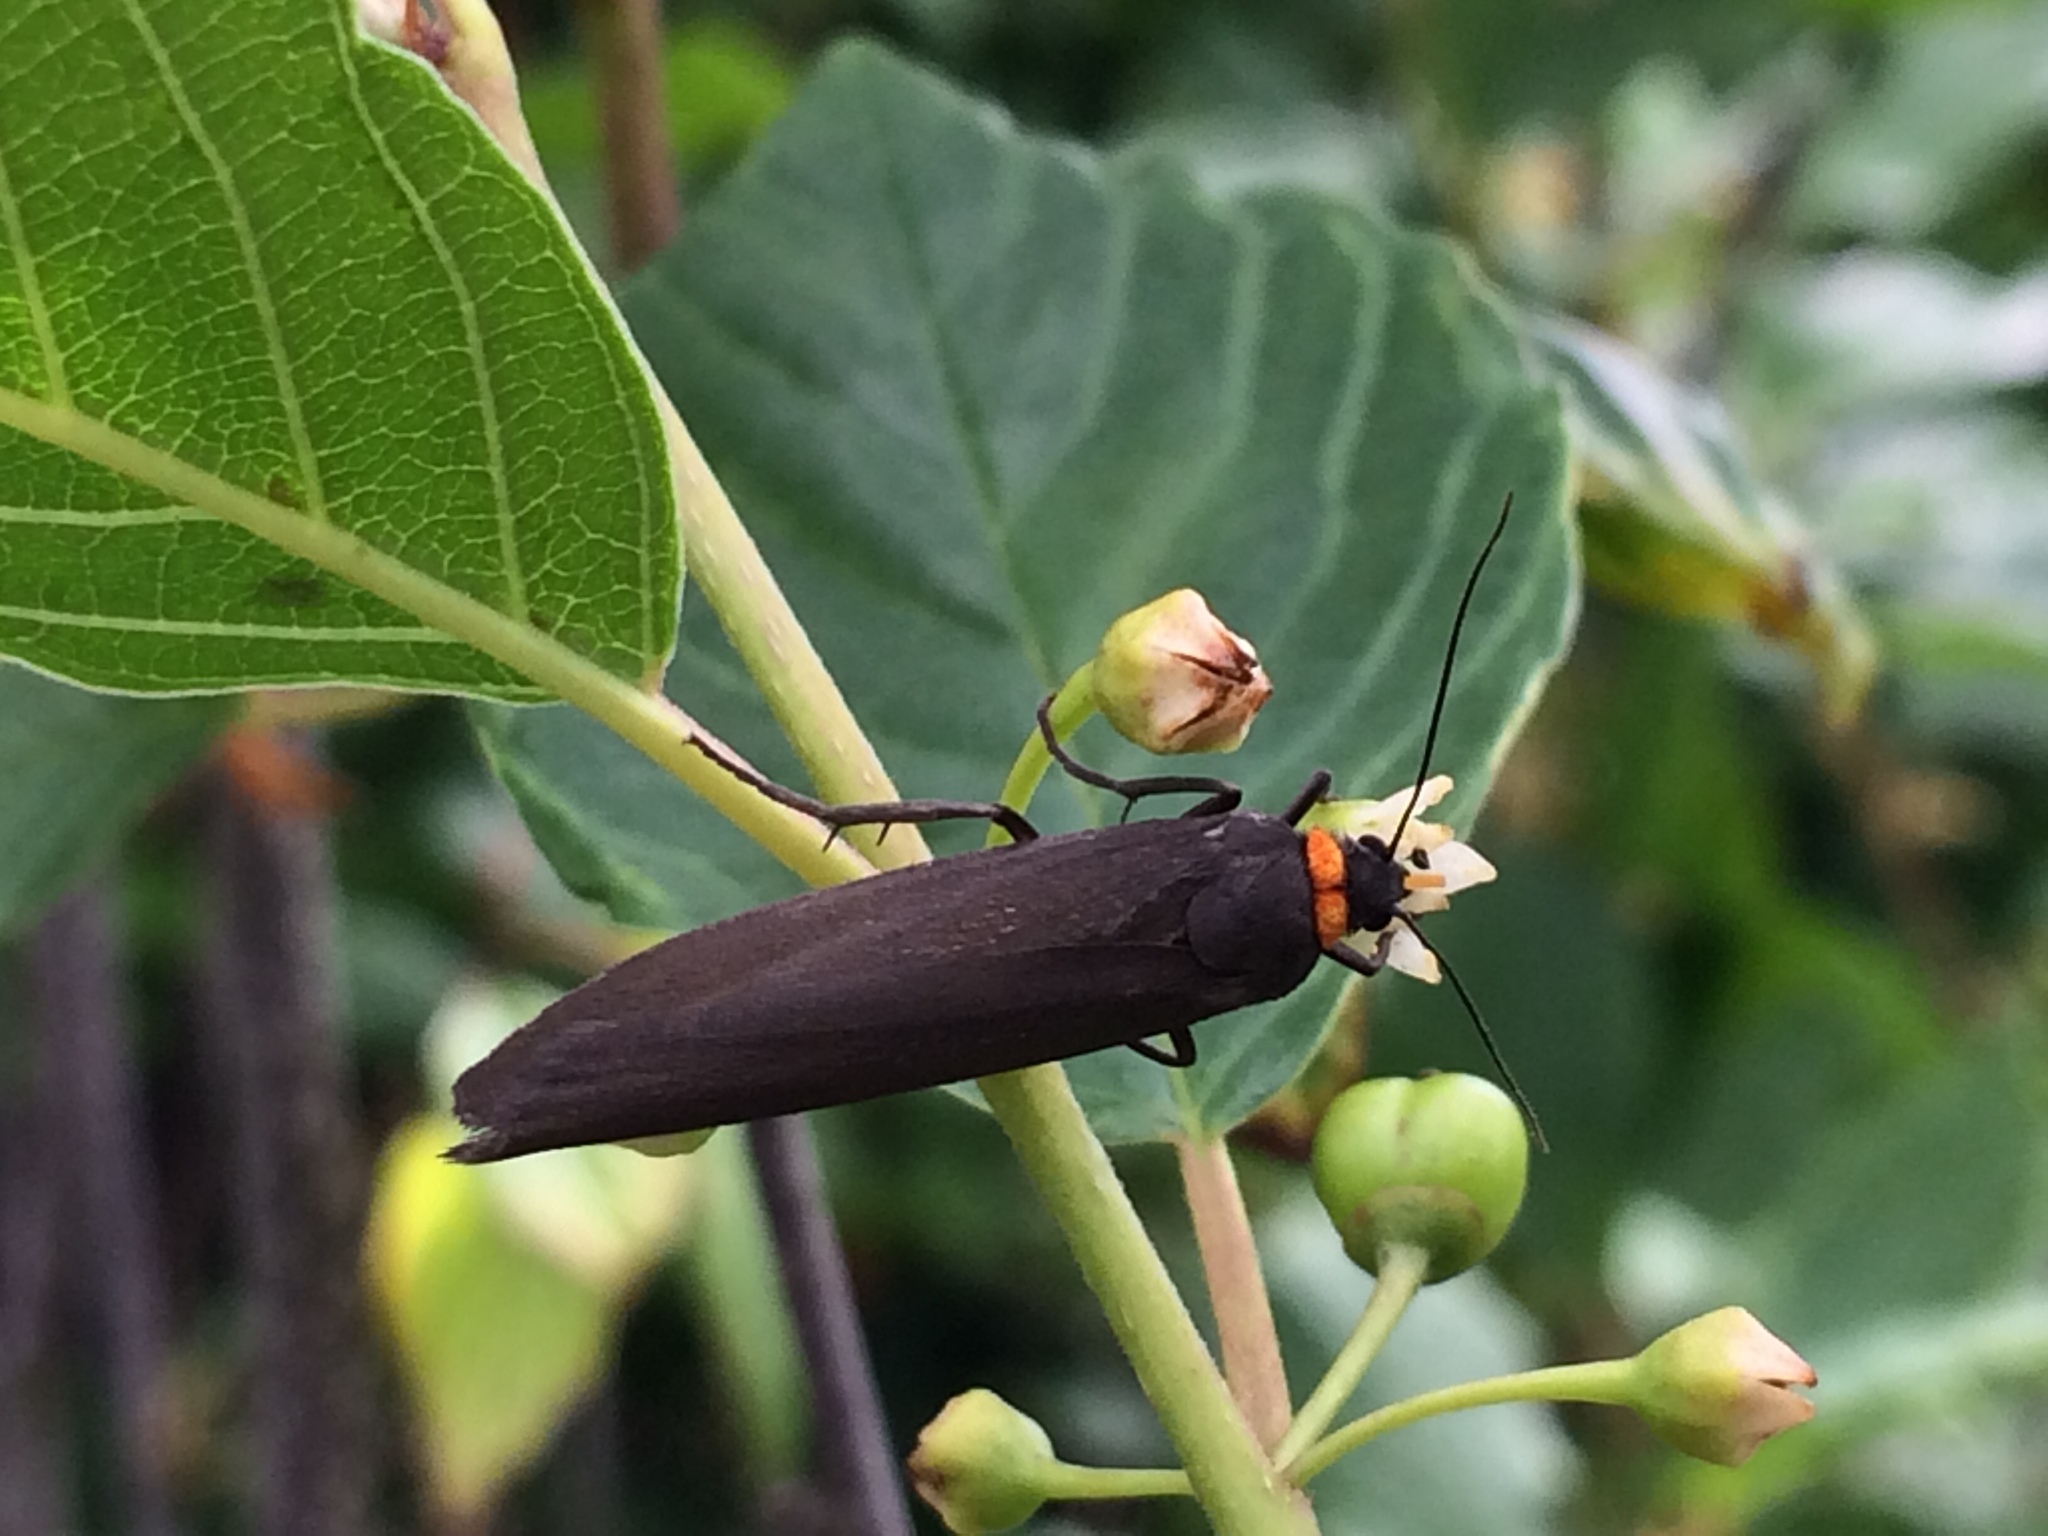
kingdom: Animalia
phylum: Arthropoda
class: Insecta
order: Lepidoptera
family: Erebidae
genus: Atolmis
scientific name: Atolmis rubricollis
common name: Red-necked footman
